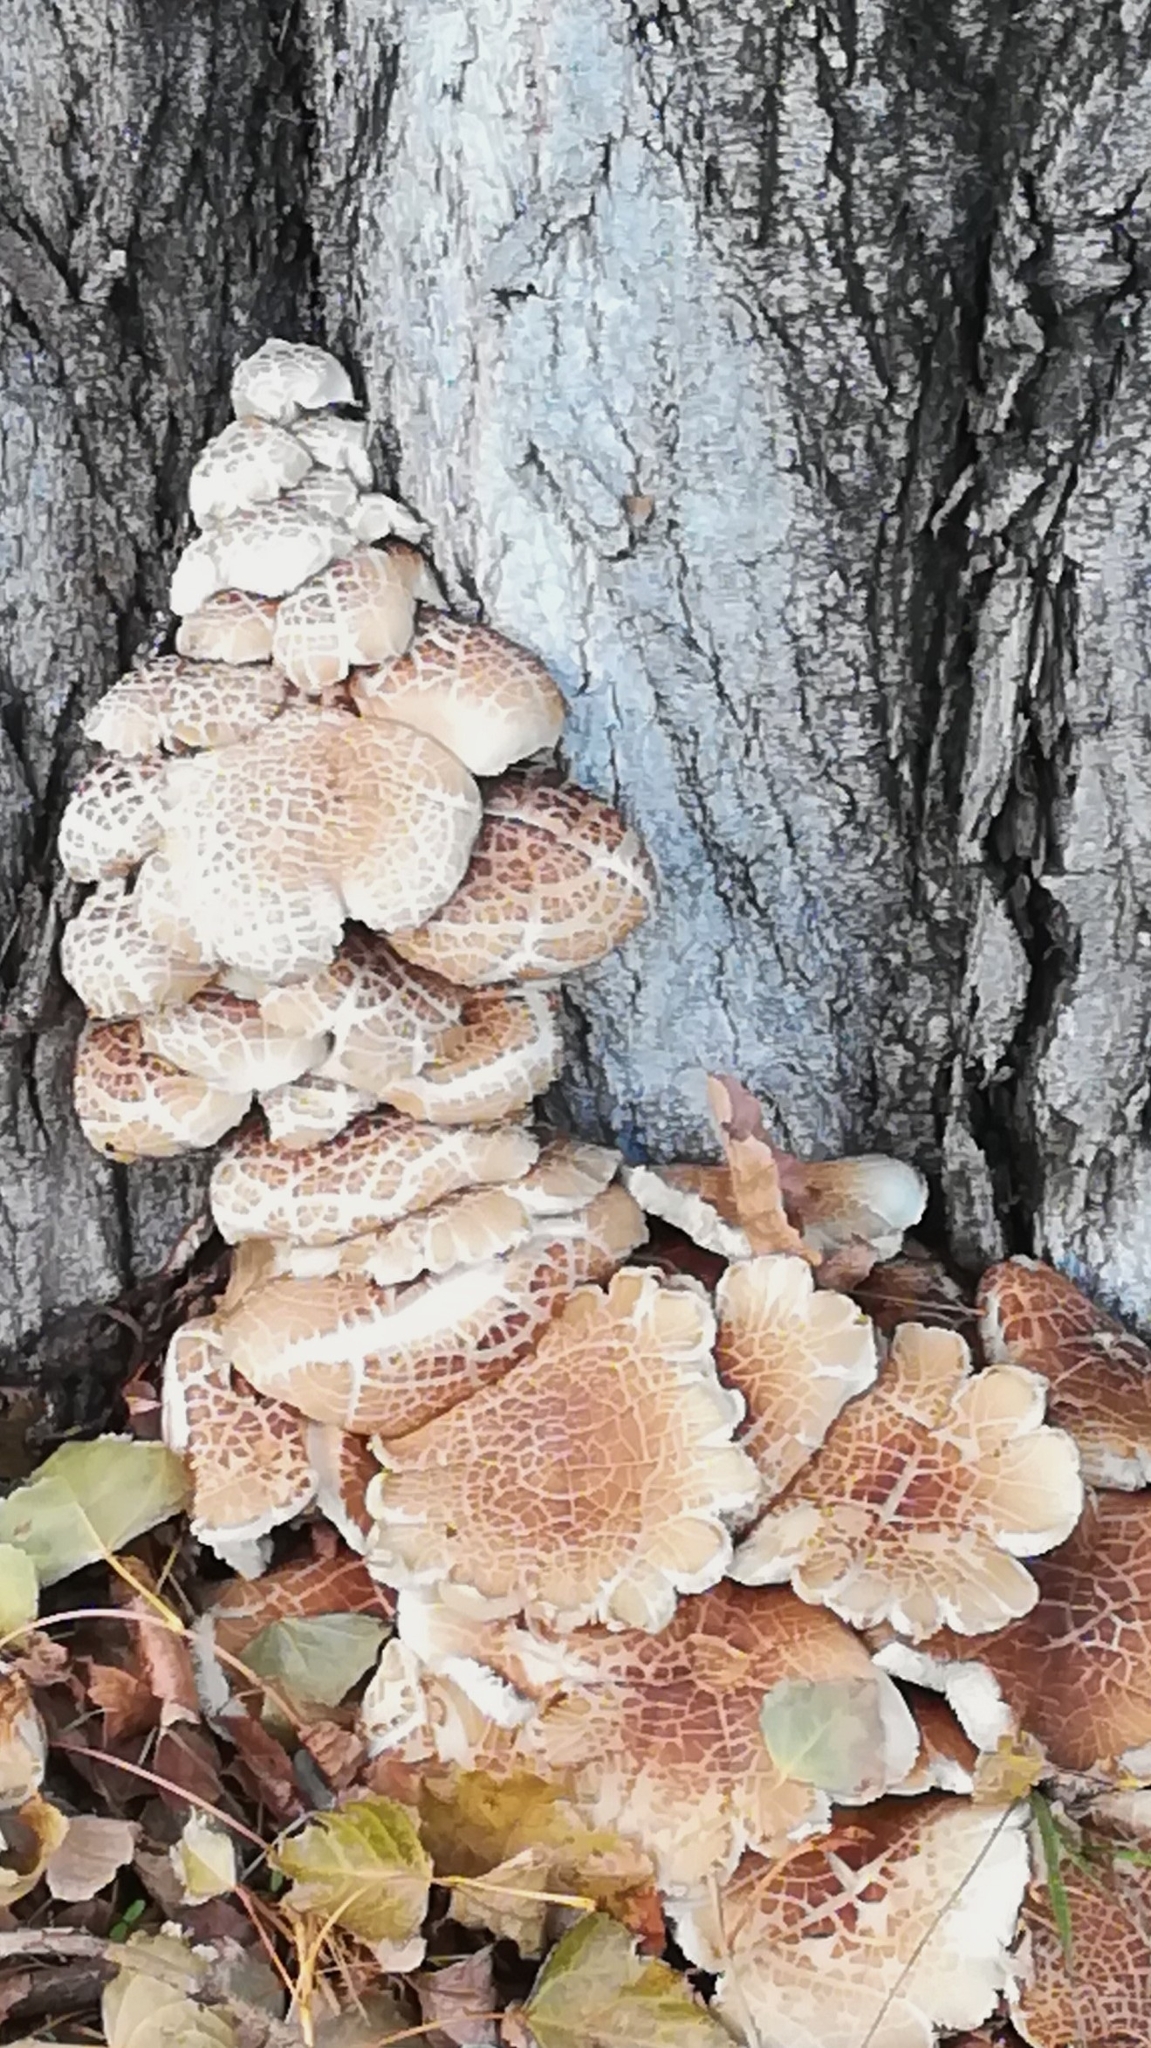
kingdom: Fungi
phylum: Basidiomycota
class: Agaricomycetes
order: Agaricales
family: Tubariaceae
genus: Cyclocybe
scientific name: Cyclocybe cylindracea
